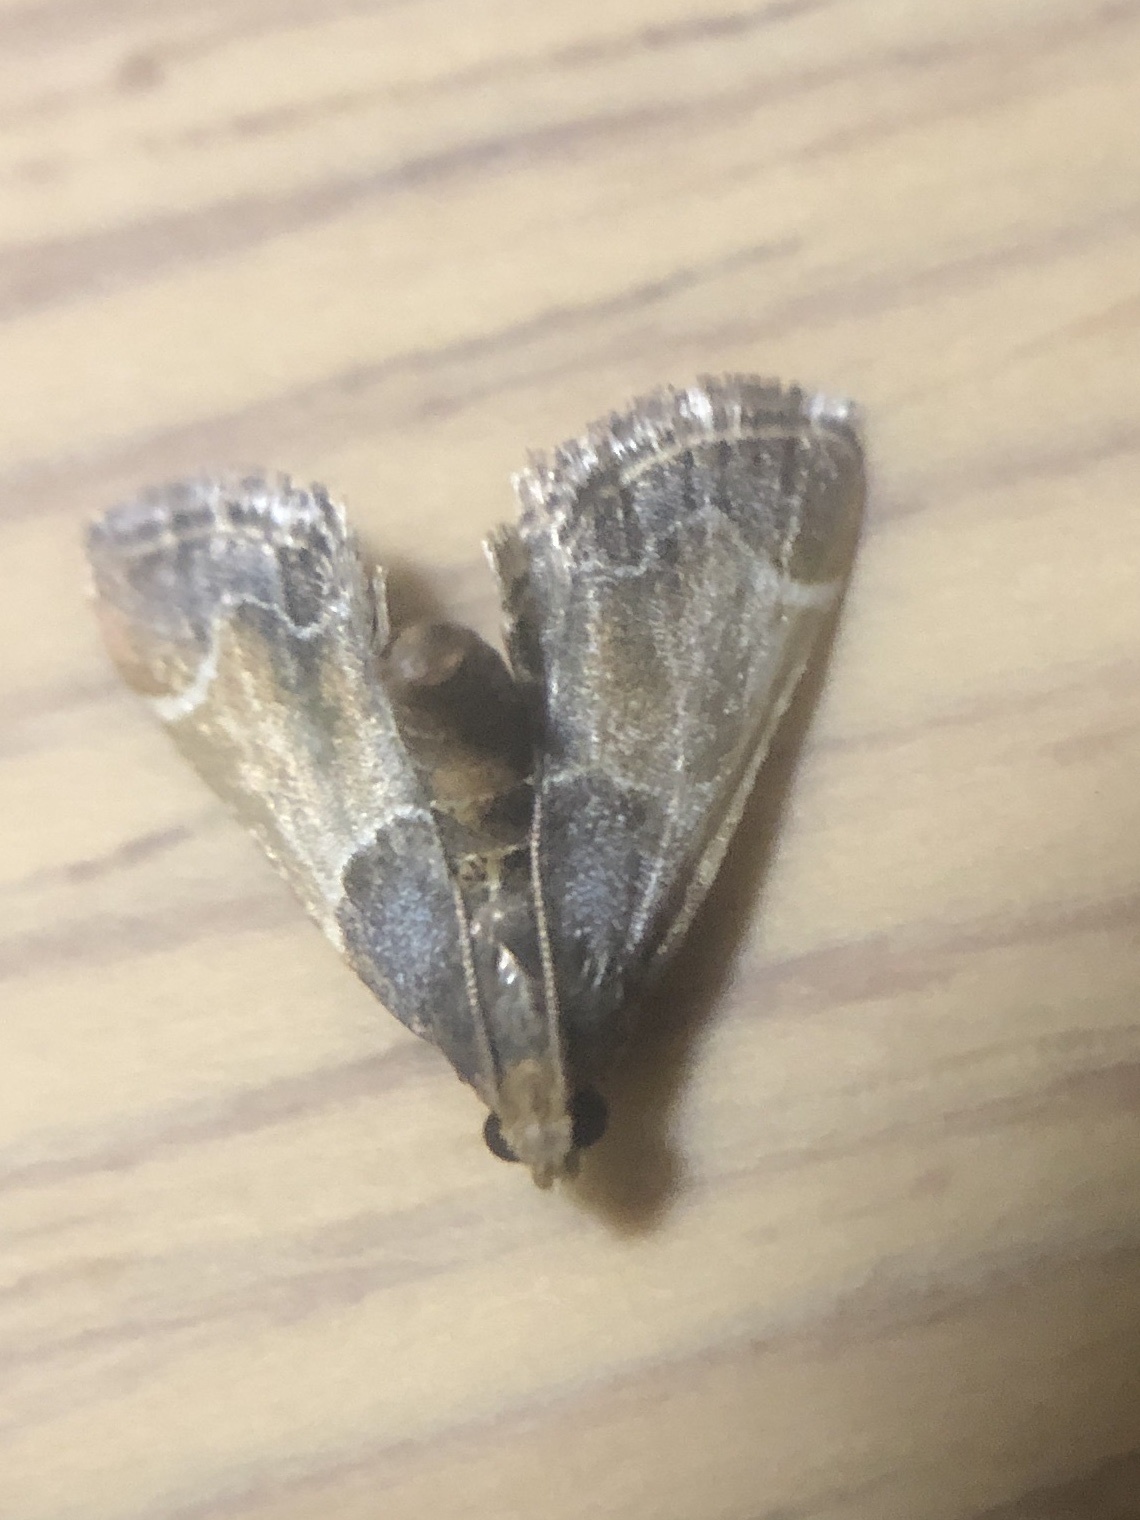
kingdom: Animalia
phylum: Arthropoda
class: Insecta
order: Lepidoptera
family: Pyralidae
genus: Pyralis
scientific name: Pyralis farinalis
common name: Meal moth
